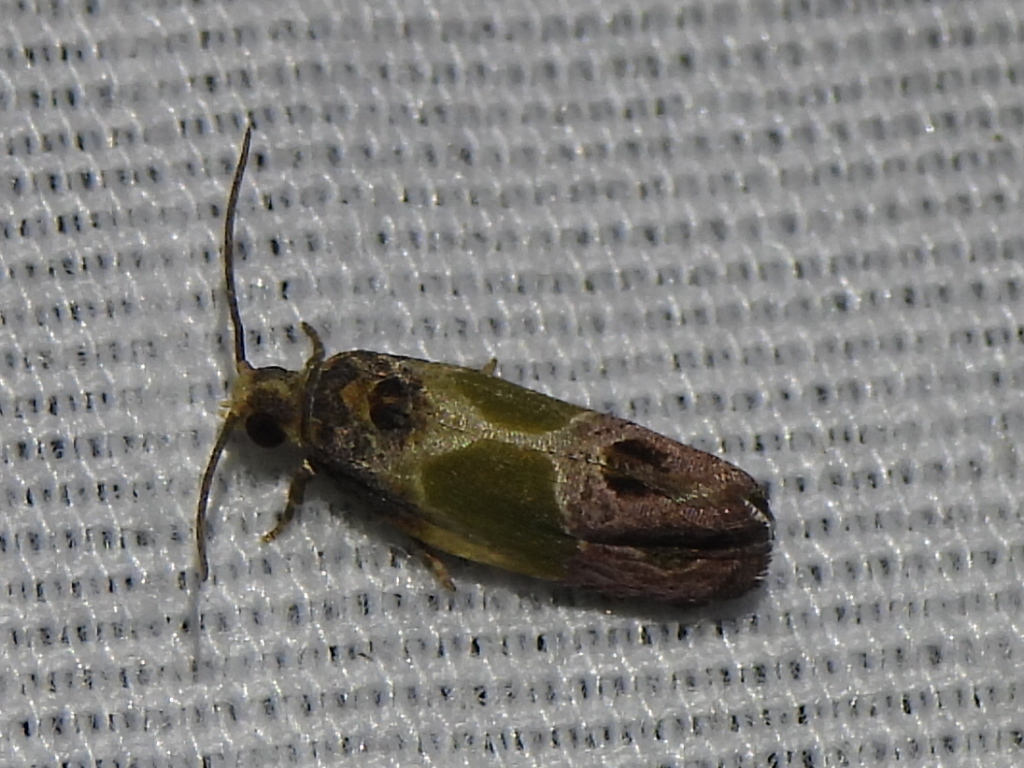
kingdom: Animalia
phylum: Arthropoda
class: Insecta
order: Lepidoptera
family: Tortricidae
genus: Eumarozia
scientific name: Eumarozia malachitana
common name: Sculptured moth
